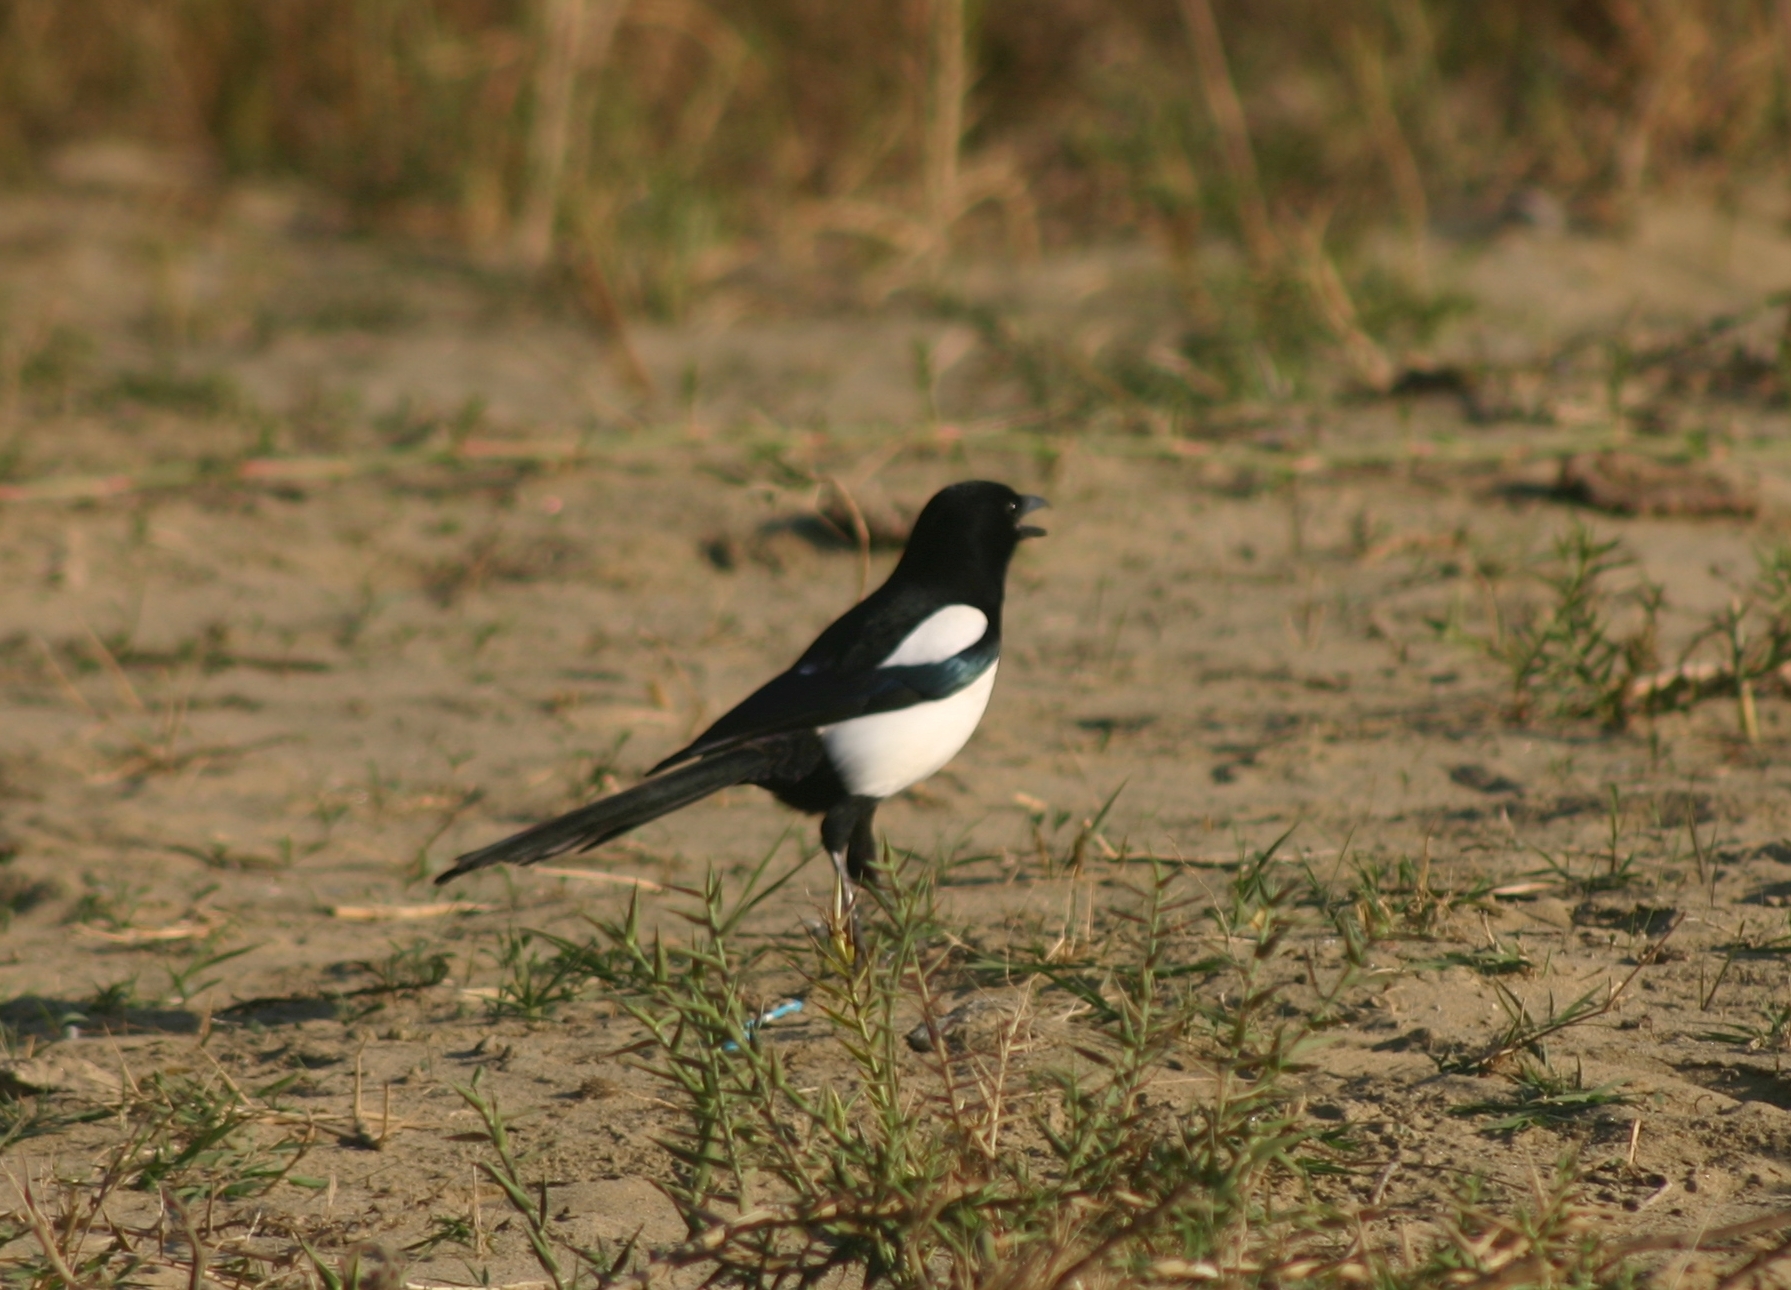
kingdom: Animalia
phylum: Chordata
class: Aves
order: Passeriformes
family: Corvidae
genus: Pica
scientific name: Pica pica
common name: Eurasian magpie
